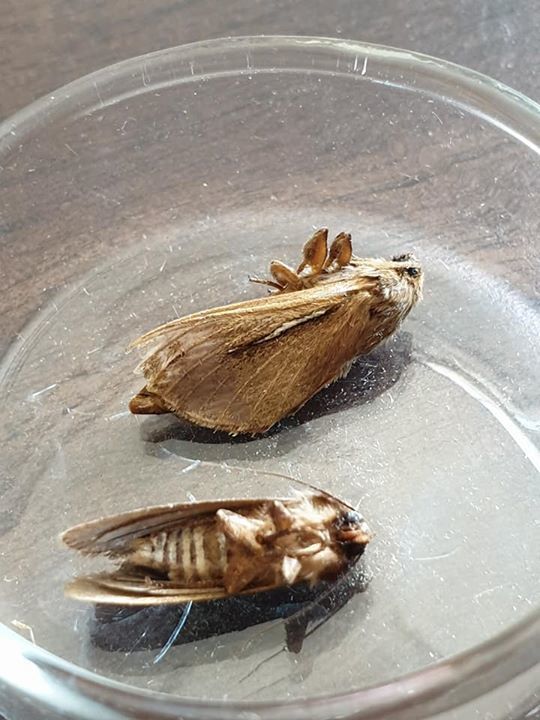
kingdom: Animalia
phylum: Arthropoda
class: Insecta
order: Lepidoptera
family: Hepialidae
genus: Wiseana
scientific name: Wiseana umbraculatus
